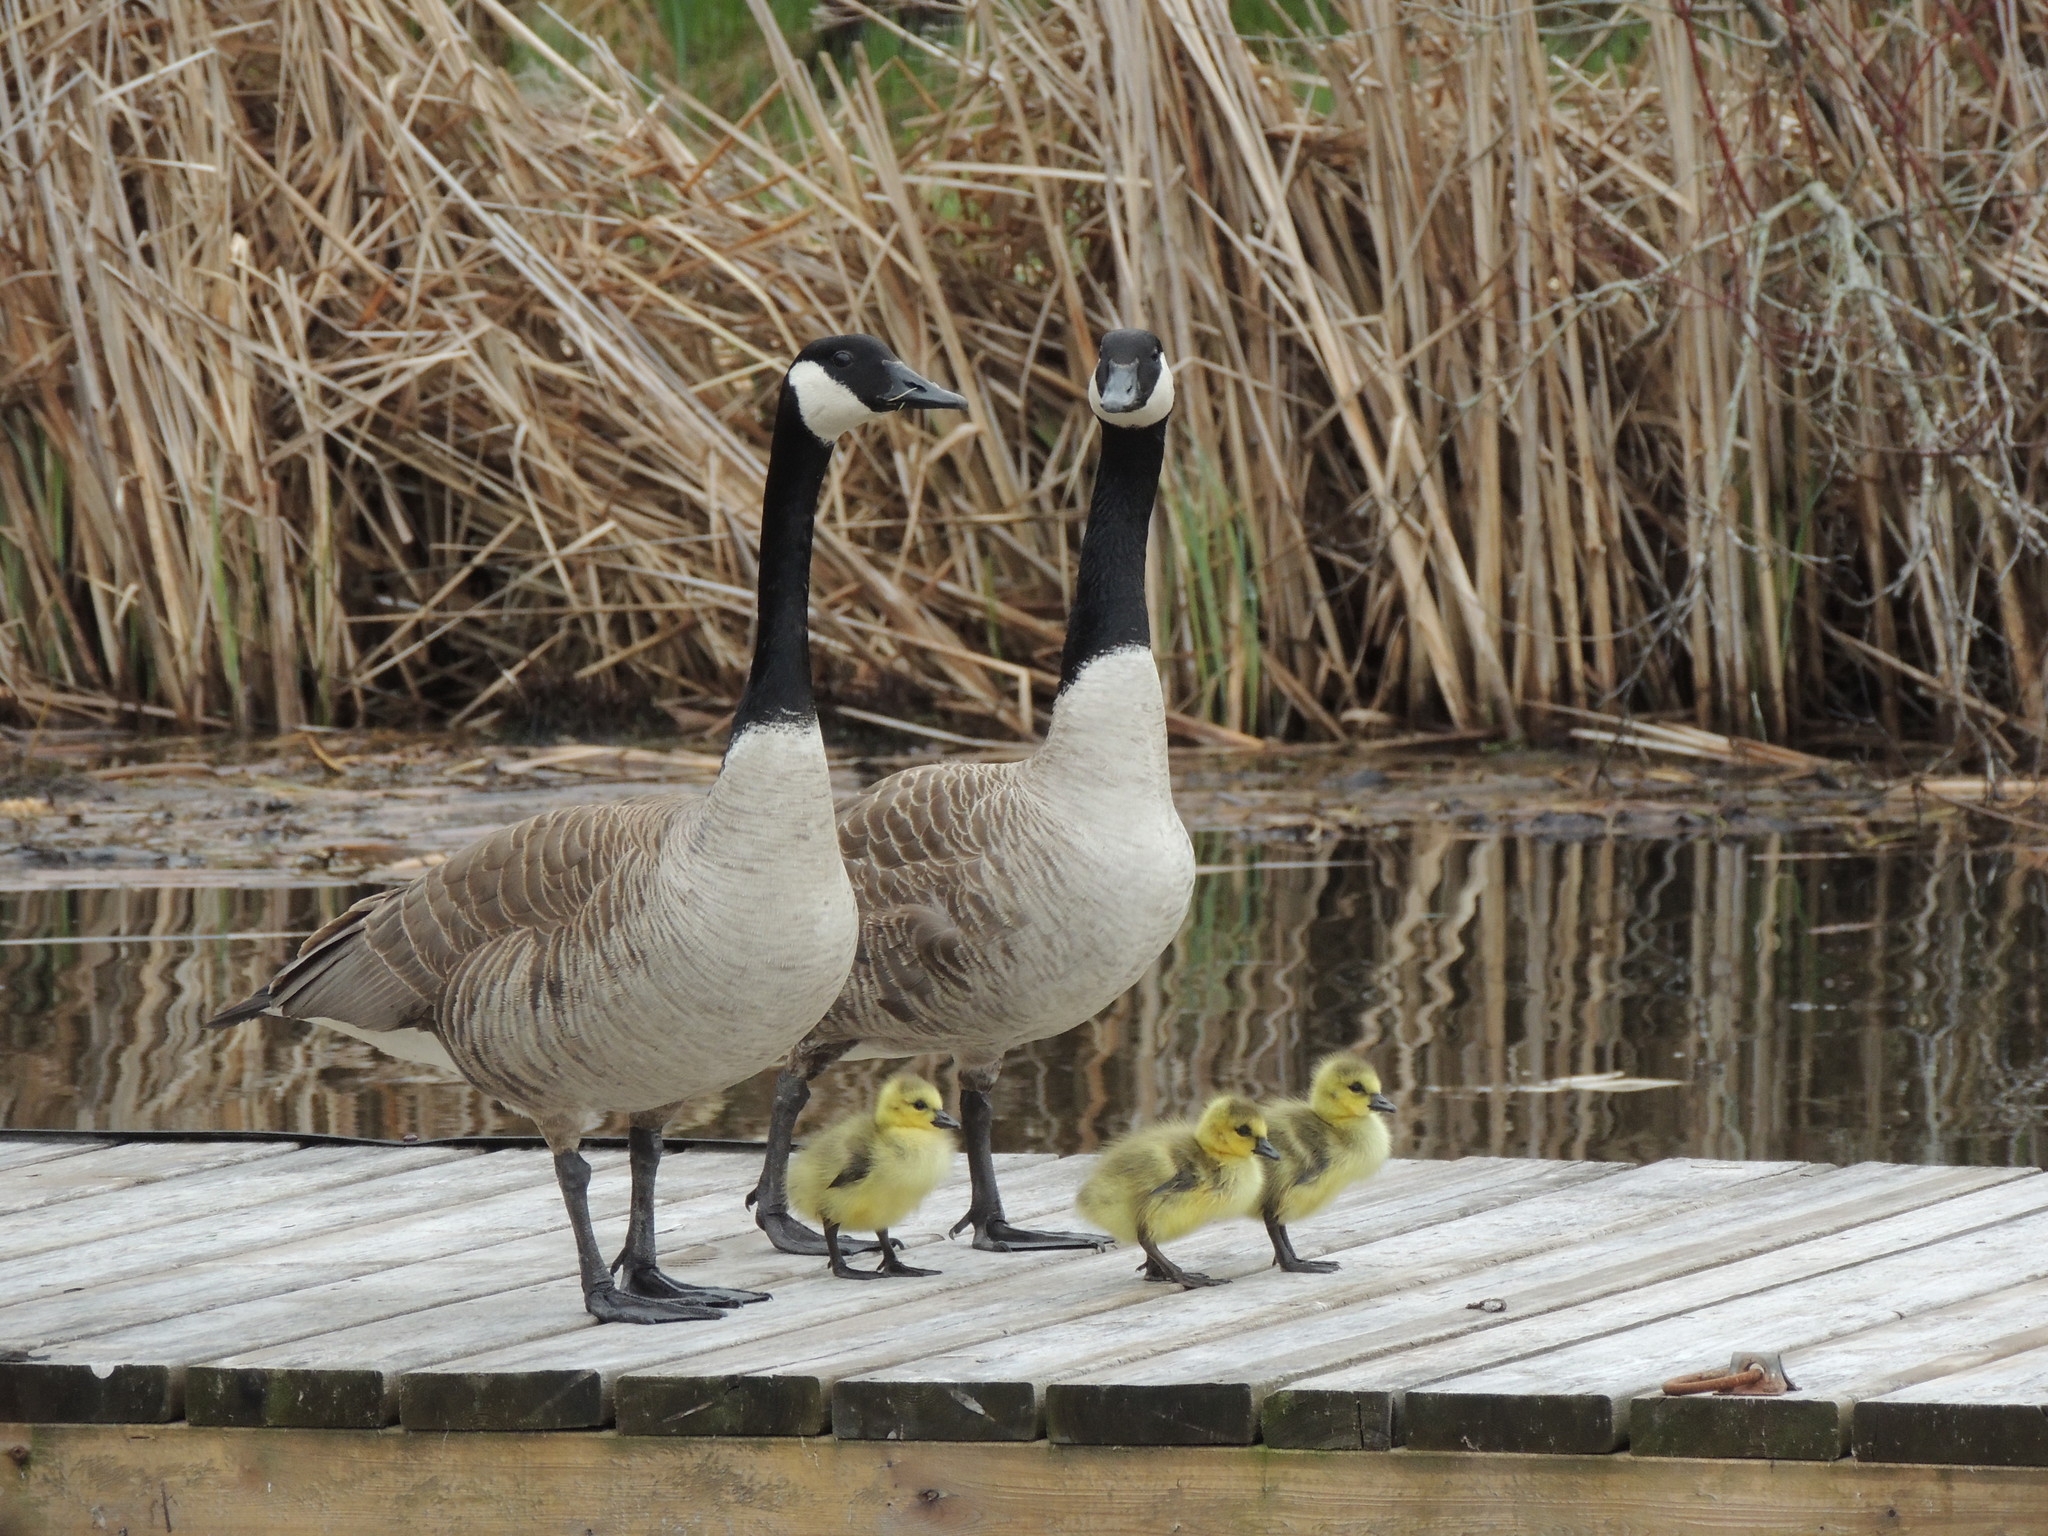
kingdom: Animalia
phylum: Chordata
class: Aves
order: Anseriformes
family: Anatidae
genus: Branta
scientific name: Branta canadensis
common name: Canada goose
